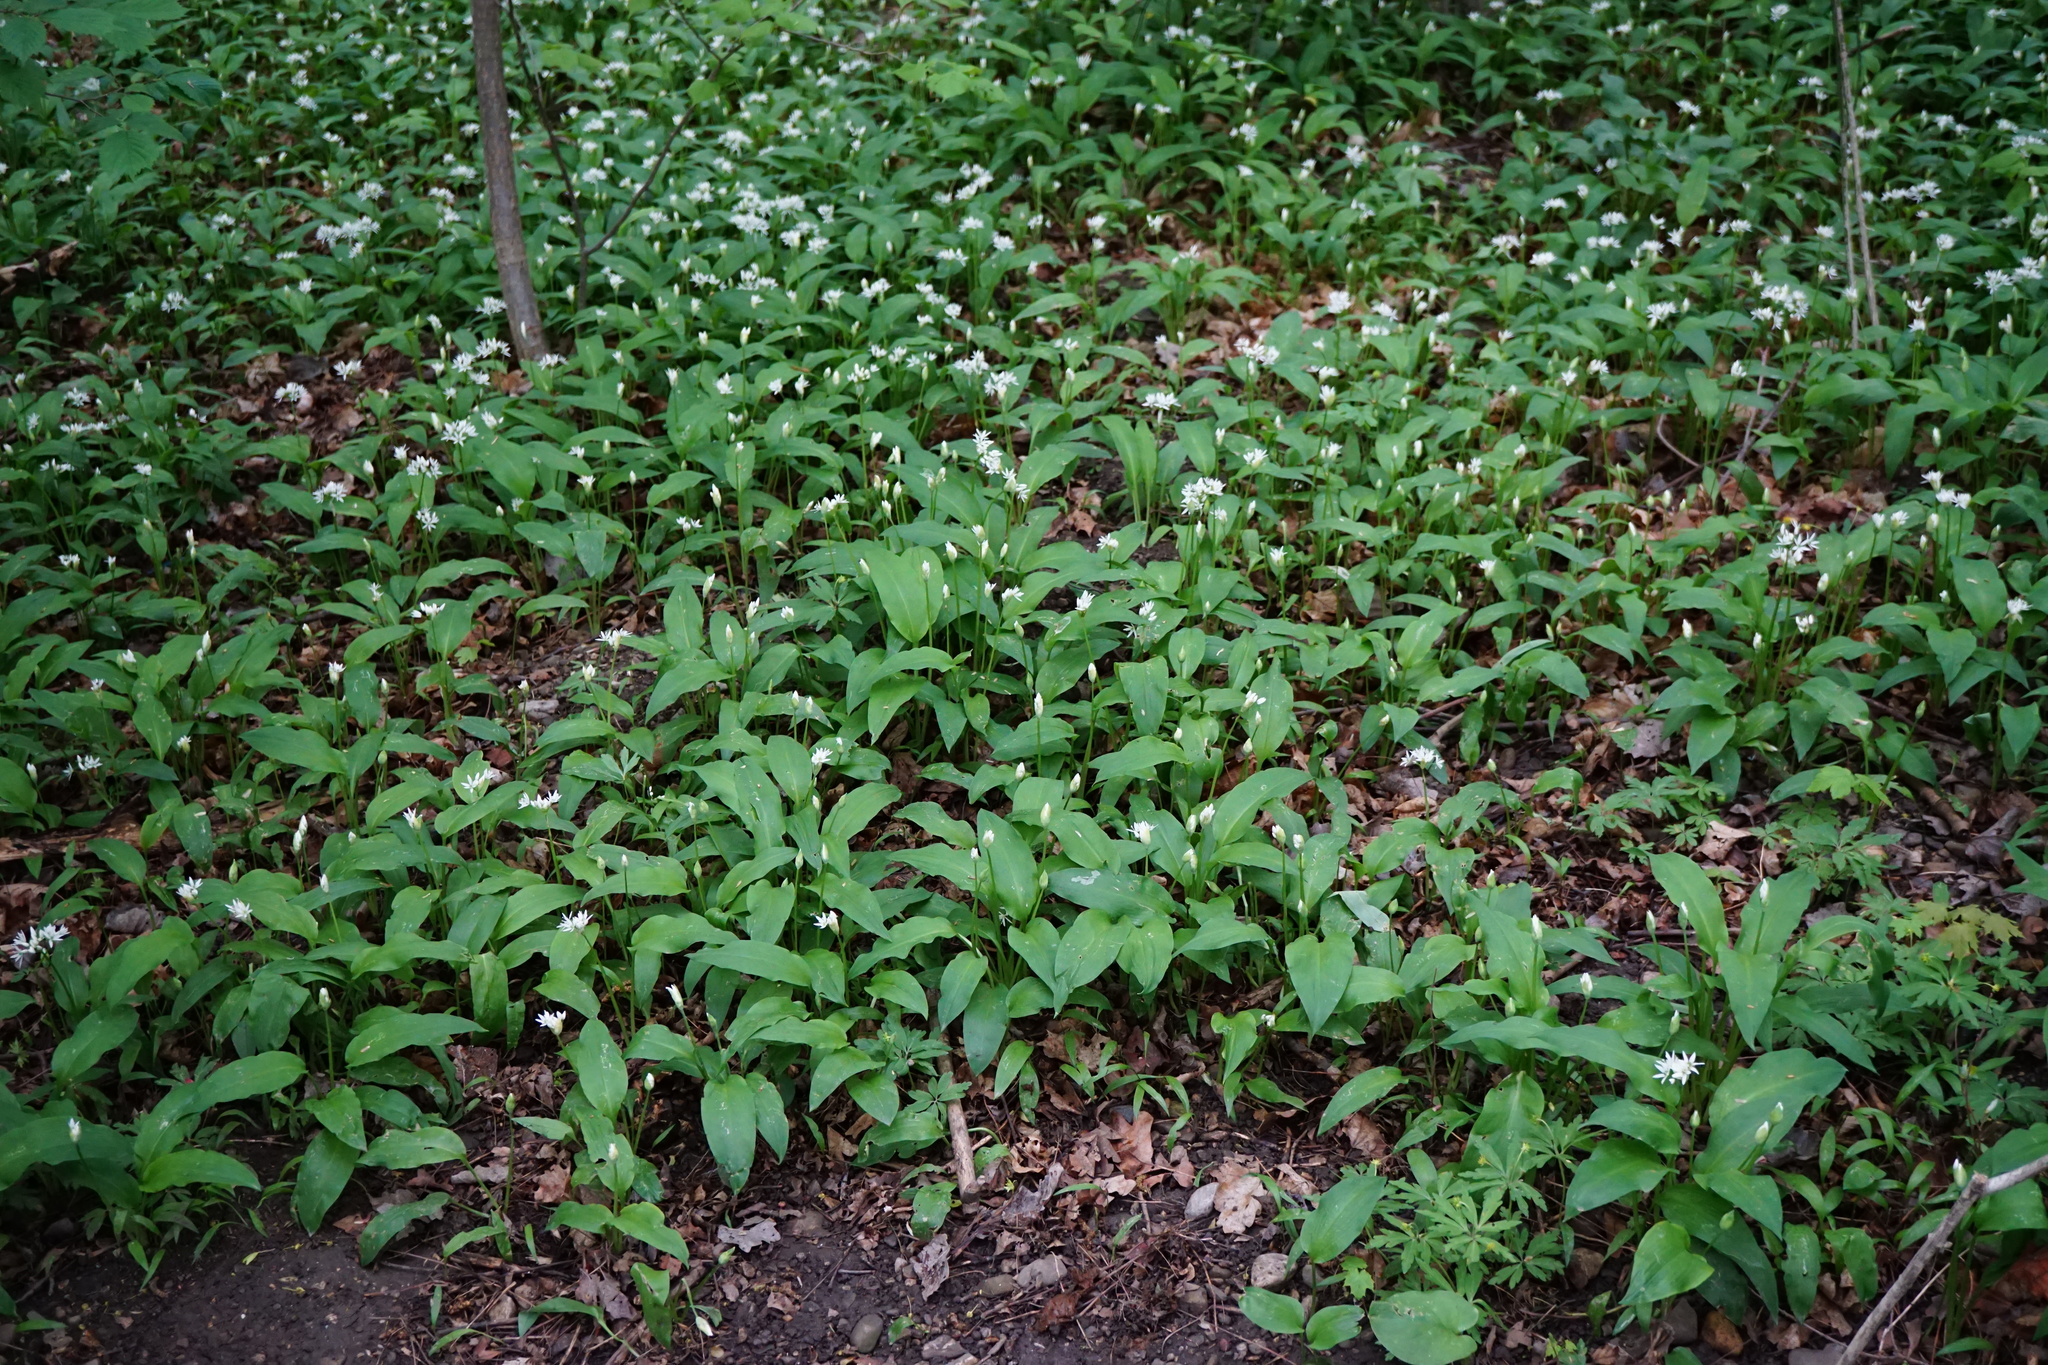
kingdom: Plantae
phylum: Tracheophyta
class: Liliopsida
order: Asparagales
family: Amaryllidaceae
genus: Allium
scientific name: Allium ursinum
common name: Ramsons
